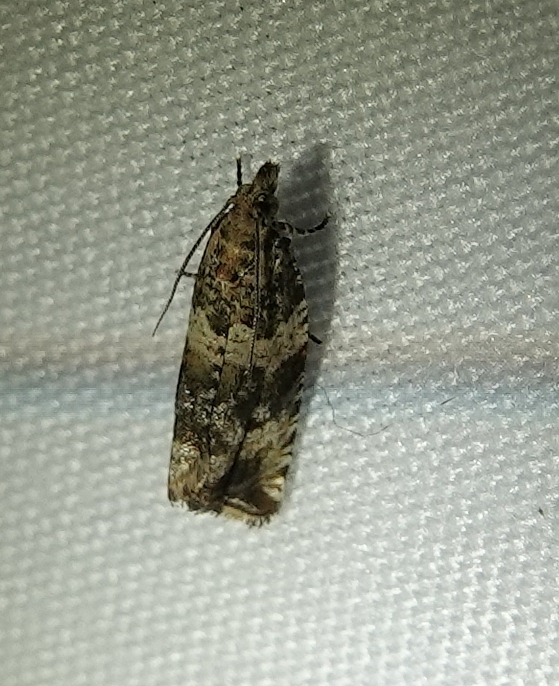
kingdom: Animalia
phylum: Arthropoda
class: Insecta
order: Lepidoptera
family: Tortricidae
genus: Celypha
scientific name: Celypha cespitana
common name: Thyme marble
